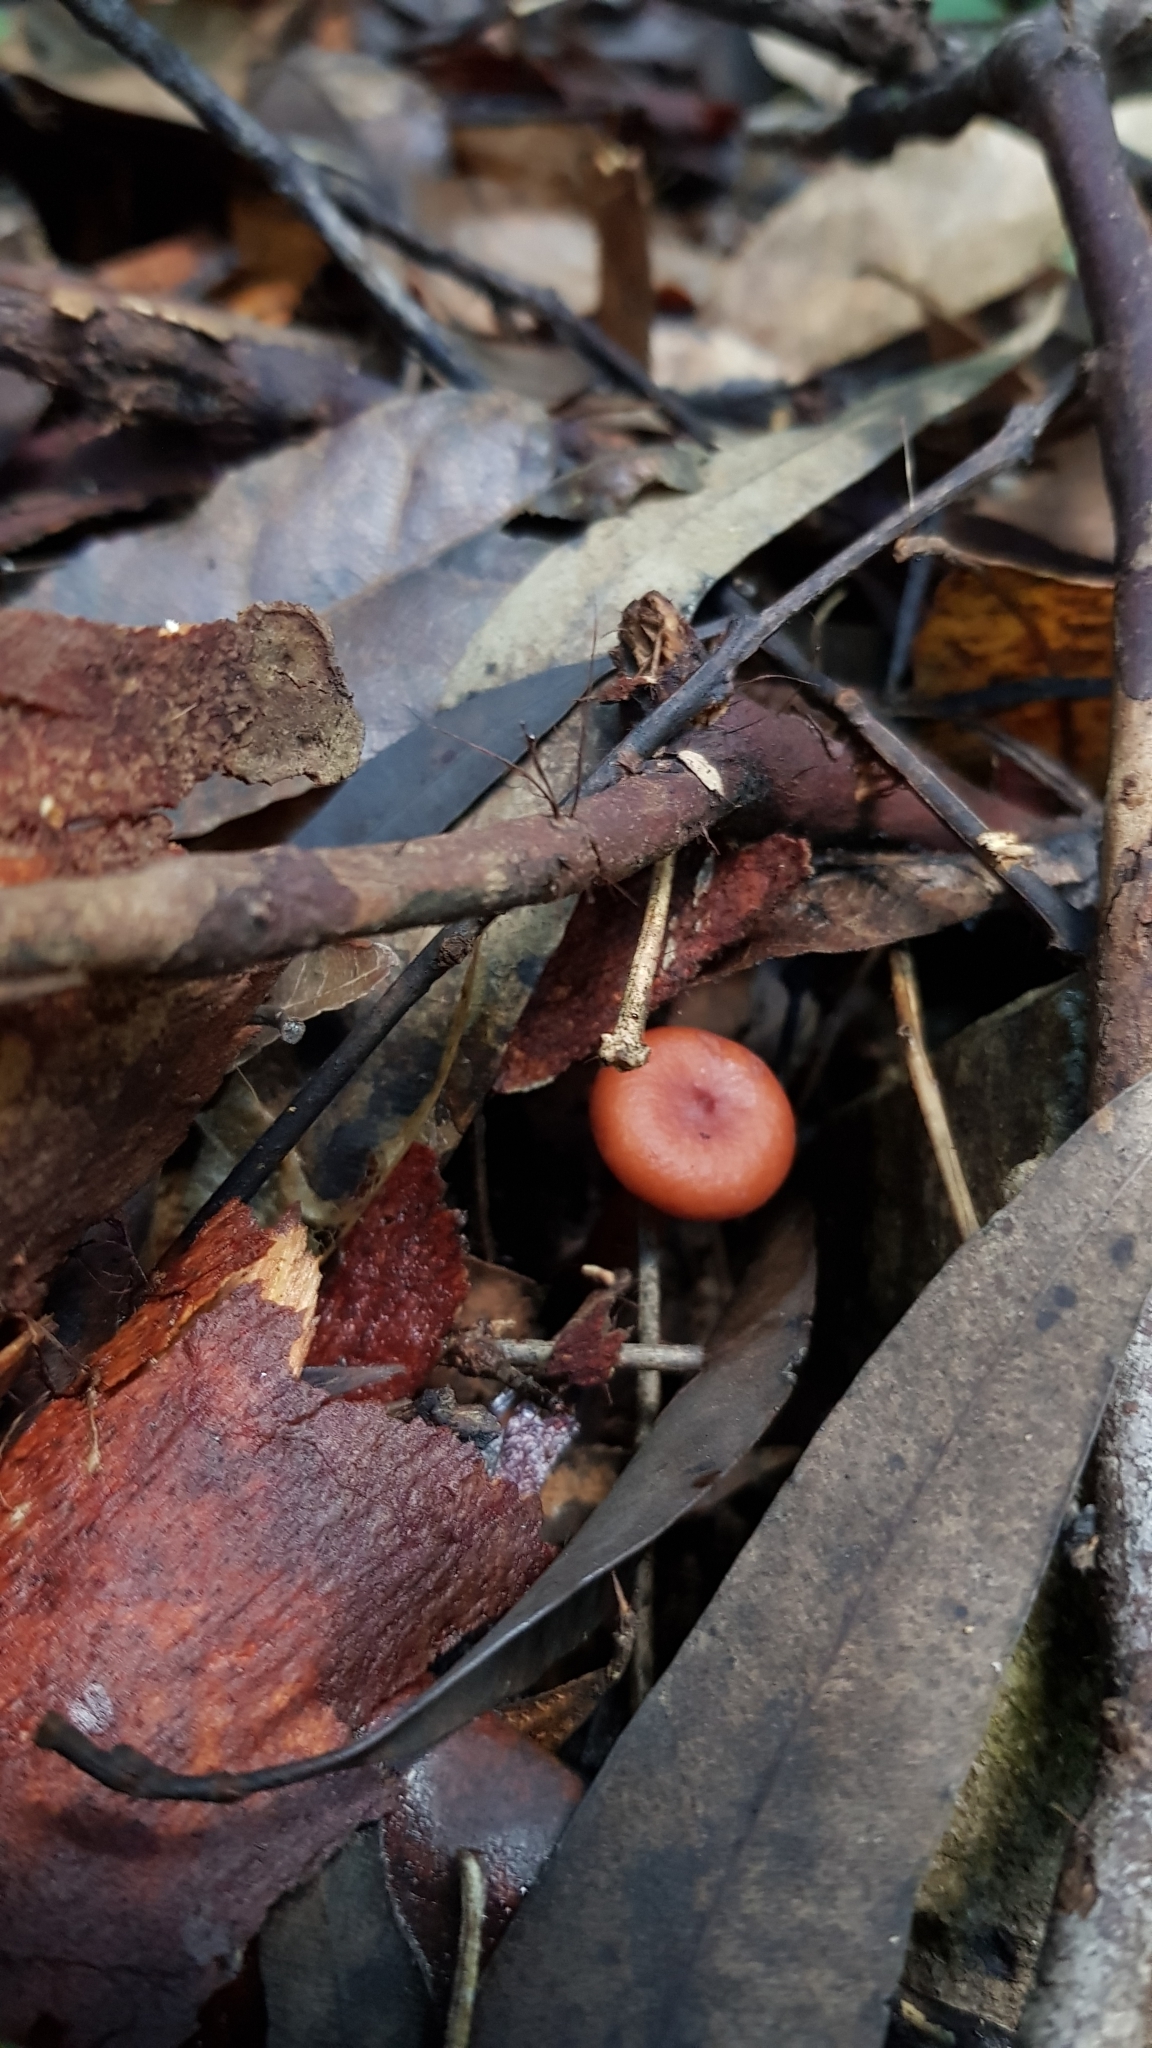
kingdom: Fungi
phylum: Basidiomycota
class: Agaricomycetes
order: Russulales
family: Russulaceae
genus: Lactarius
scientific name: Lactarius eucalypti
